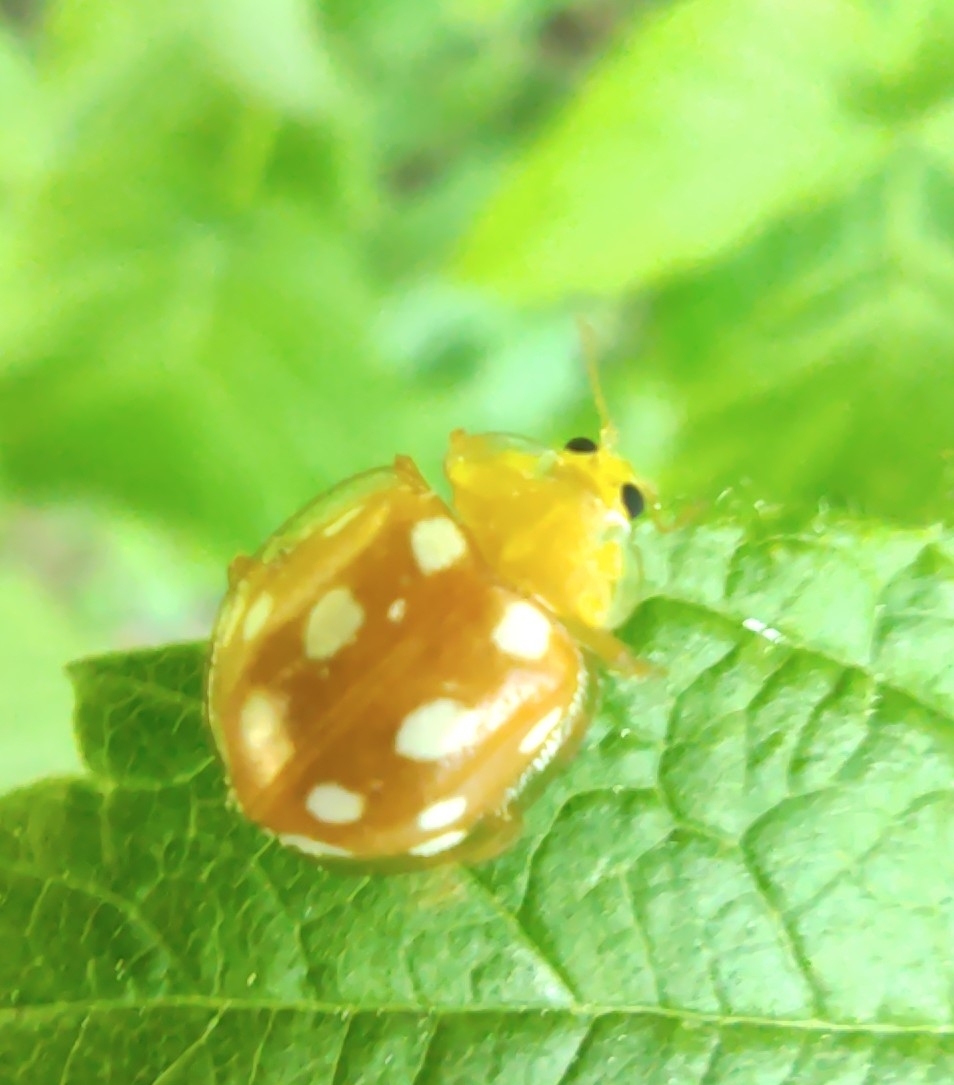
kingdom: Animalia
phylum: Arthropoda
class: Insecta
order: Coleoptera
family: Coccinellidae
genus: Halyzia
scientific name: Halyzia sedecimguttata
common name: Orange ladybird
